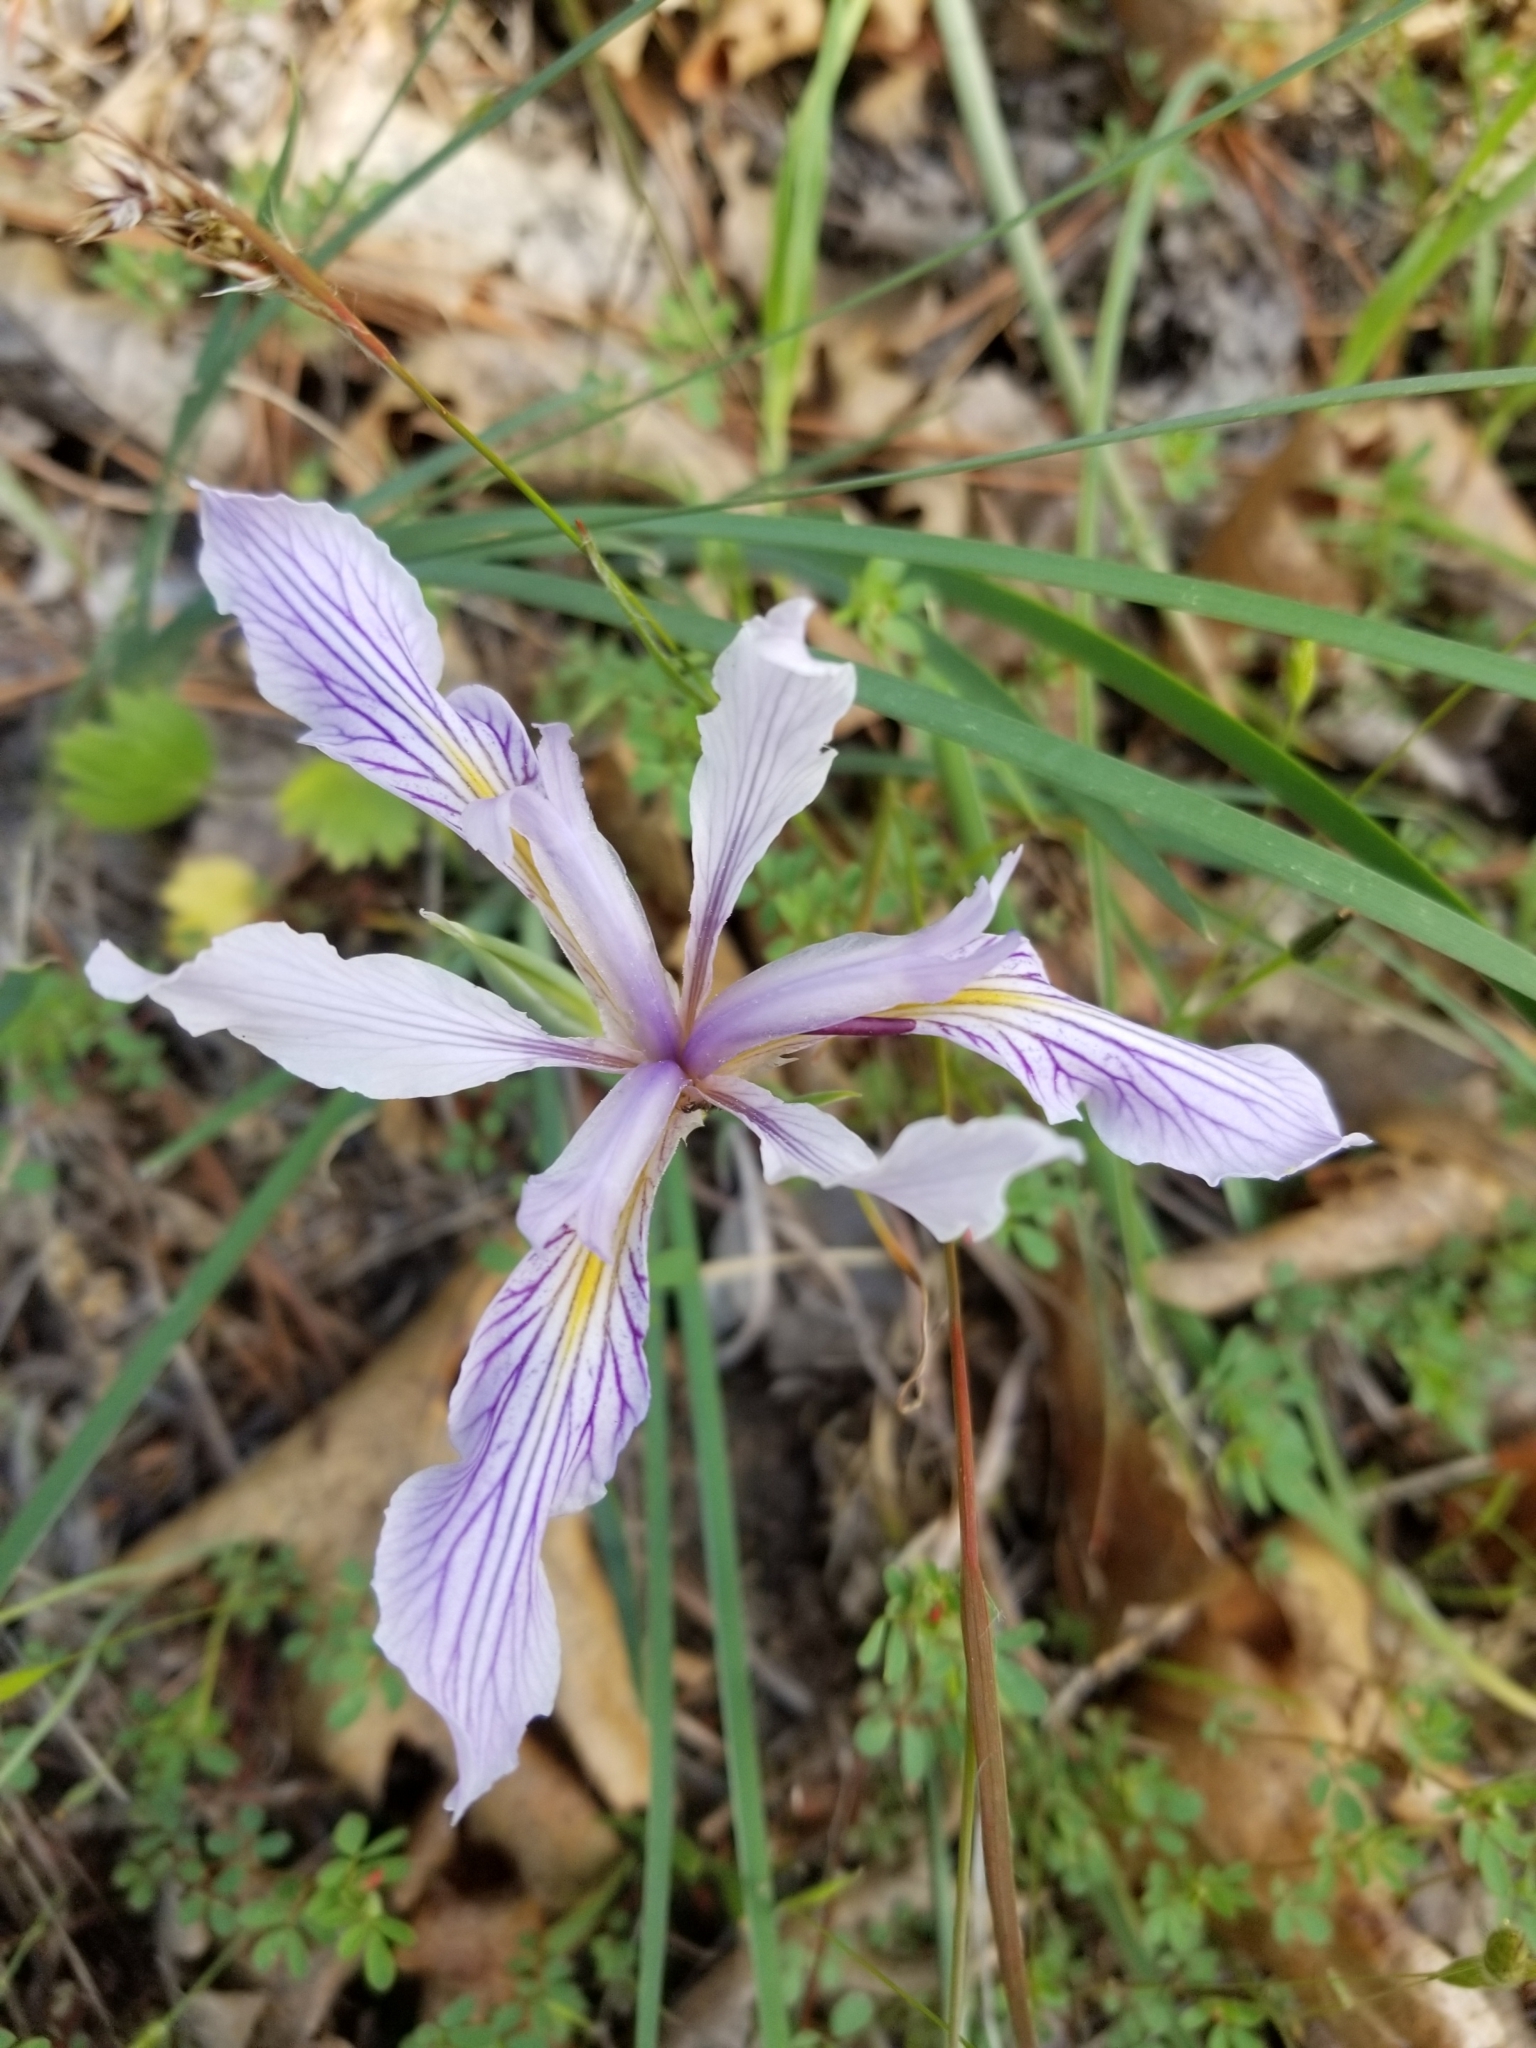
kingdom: Plantae
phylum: Tracheophyta
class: Liliopsida
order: Asparagales
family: Iridaceae
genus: Iris
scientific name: Iris hartwegii
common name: Sierra iris
